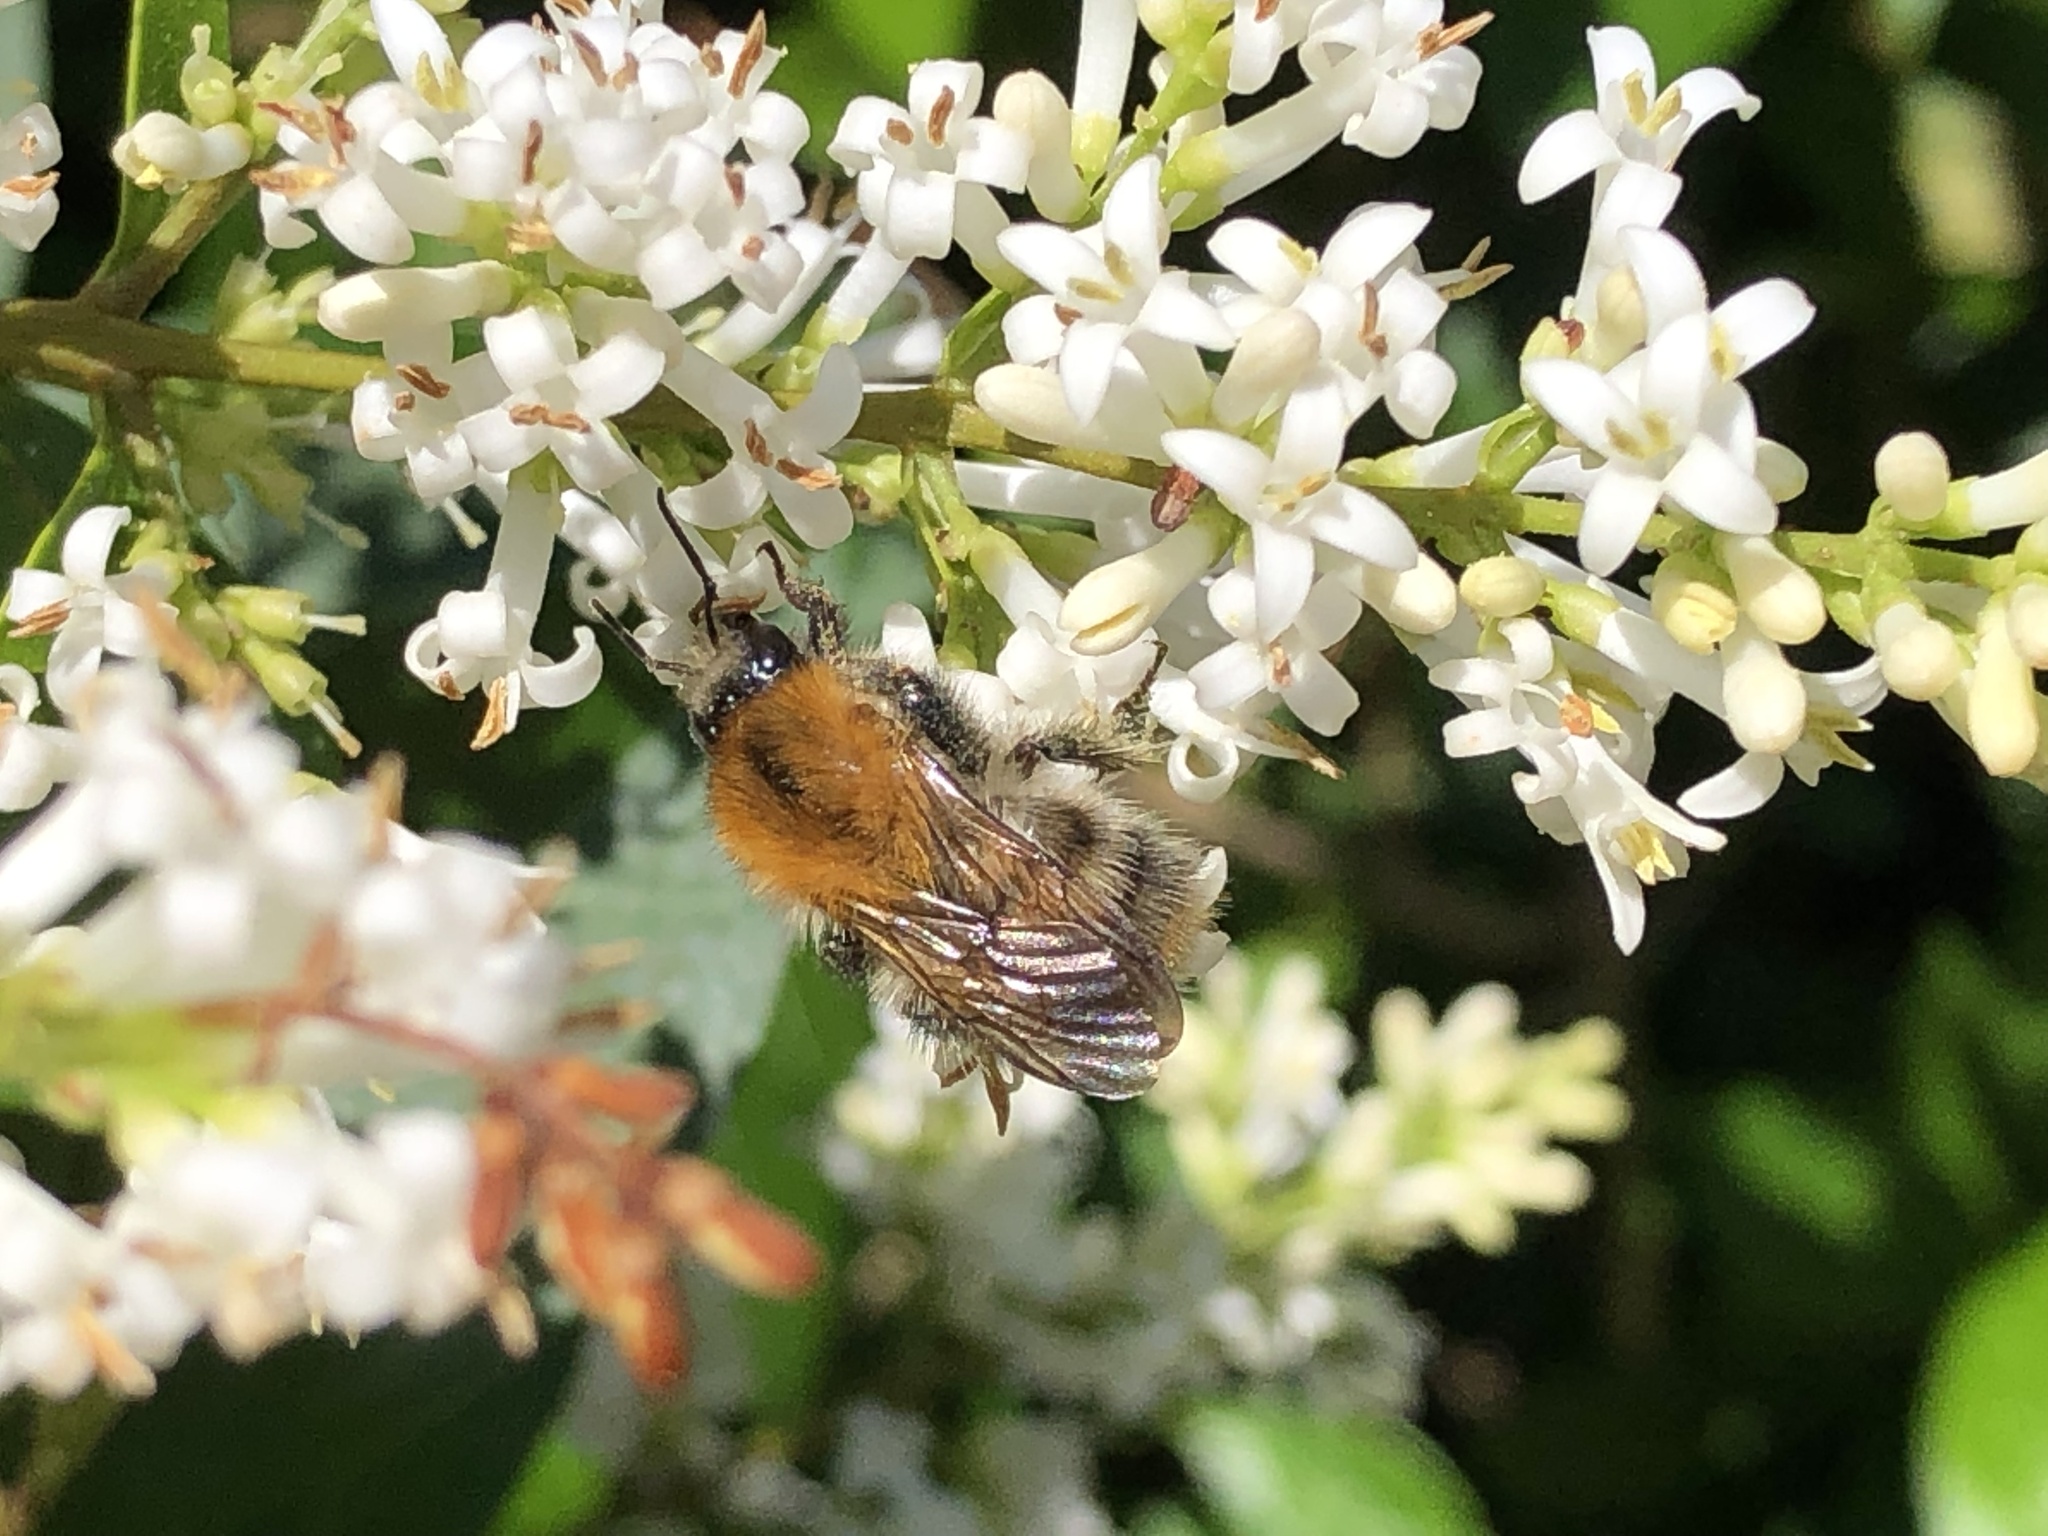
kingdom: Animalia
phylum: Arthropoda
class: Insecta
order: Hymenoptera
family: Apidae
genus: Bombus
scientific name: Bombus pascuorum
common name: Common carder bee
